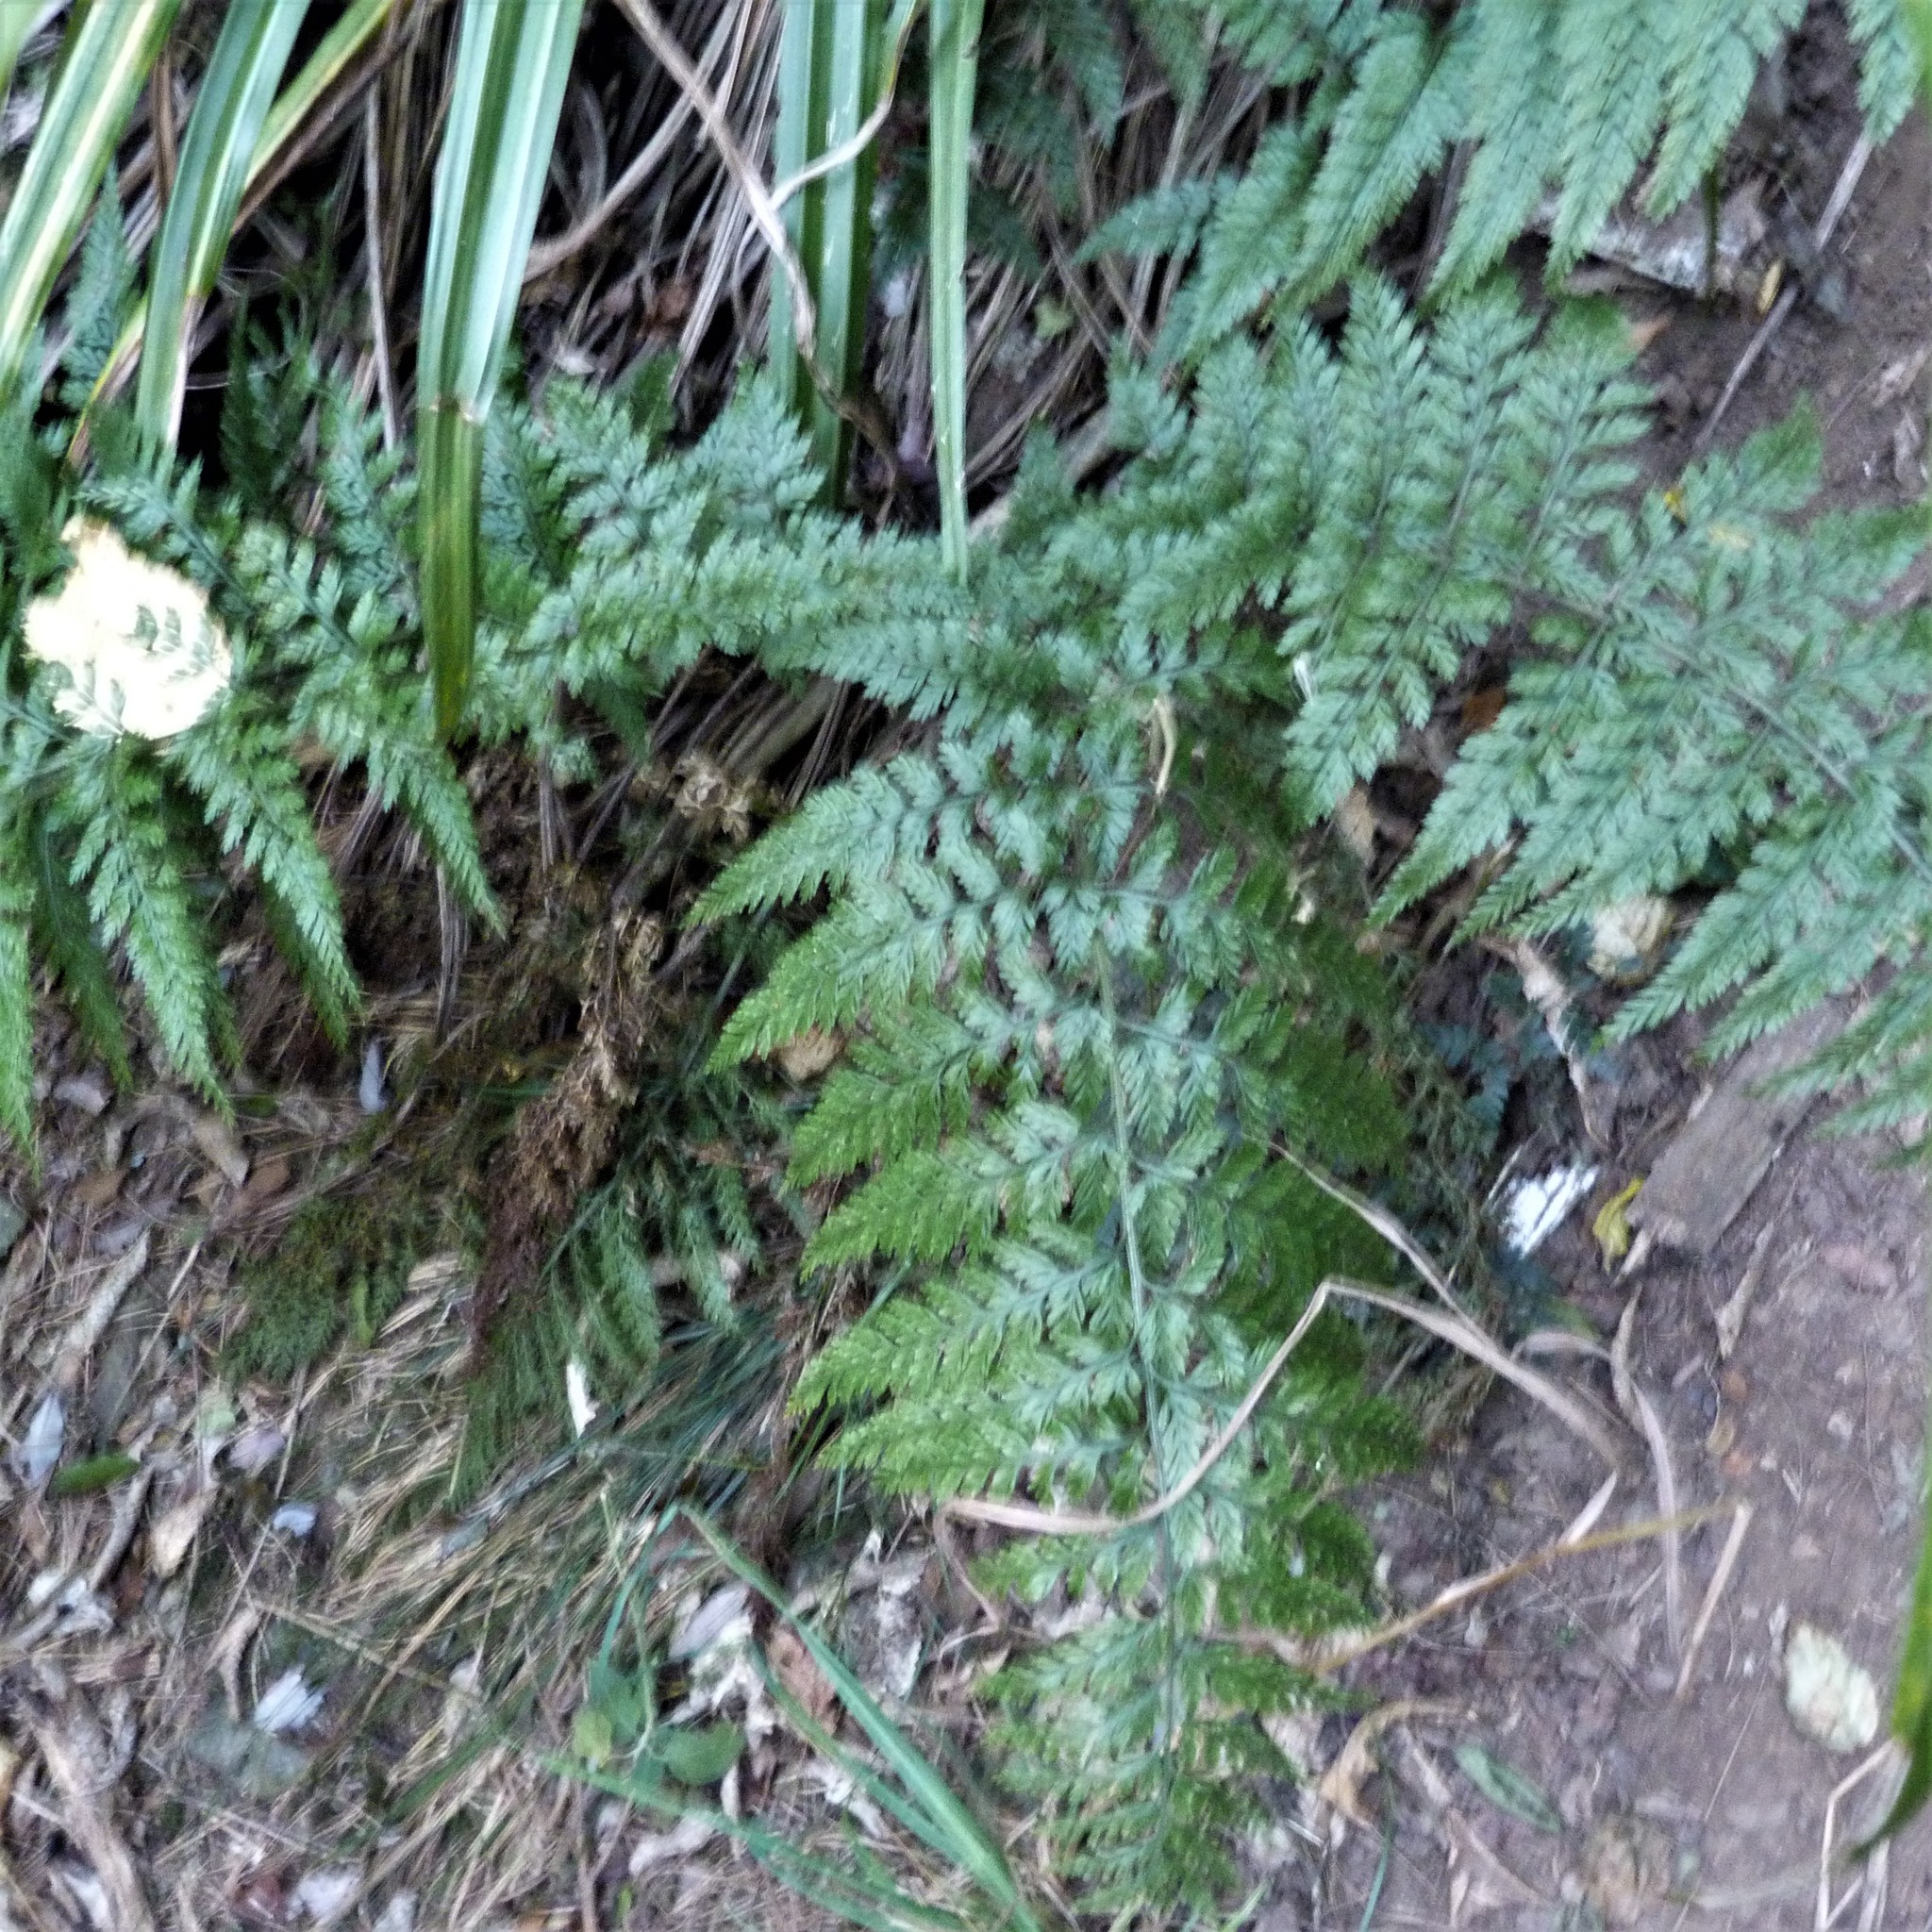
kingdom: Plantae
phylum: Tracheophyta
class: Polypodiopsida
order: Polypodiales
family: Aspleniaceae
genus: Asplenium
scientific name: Asplenium
